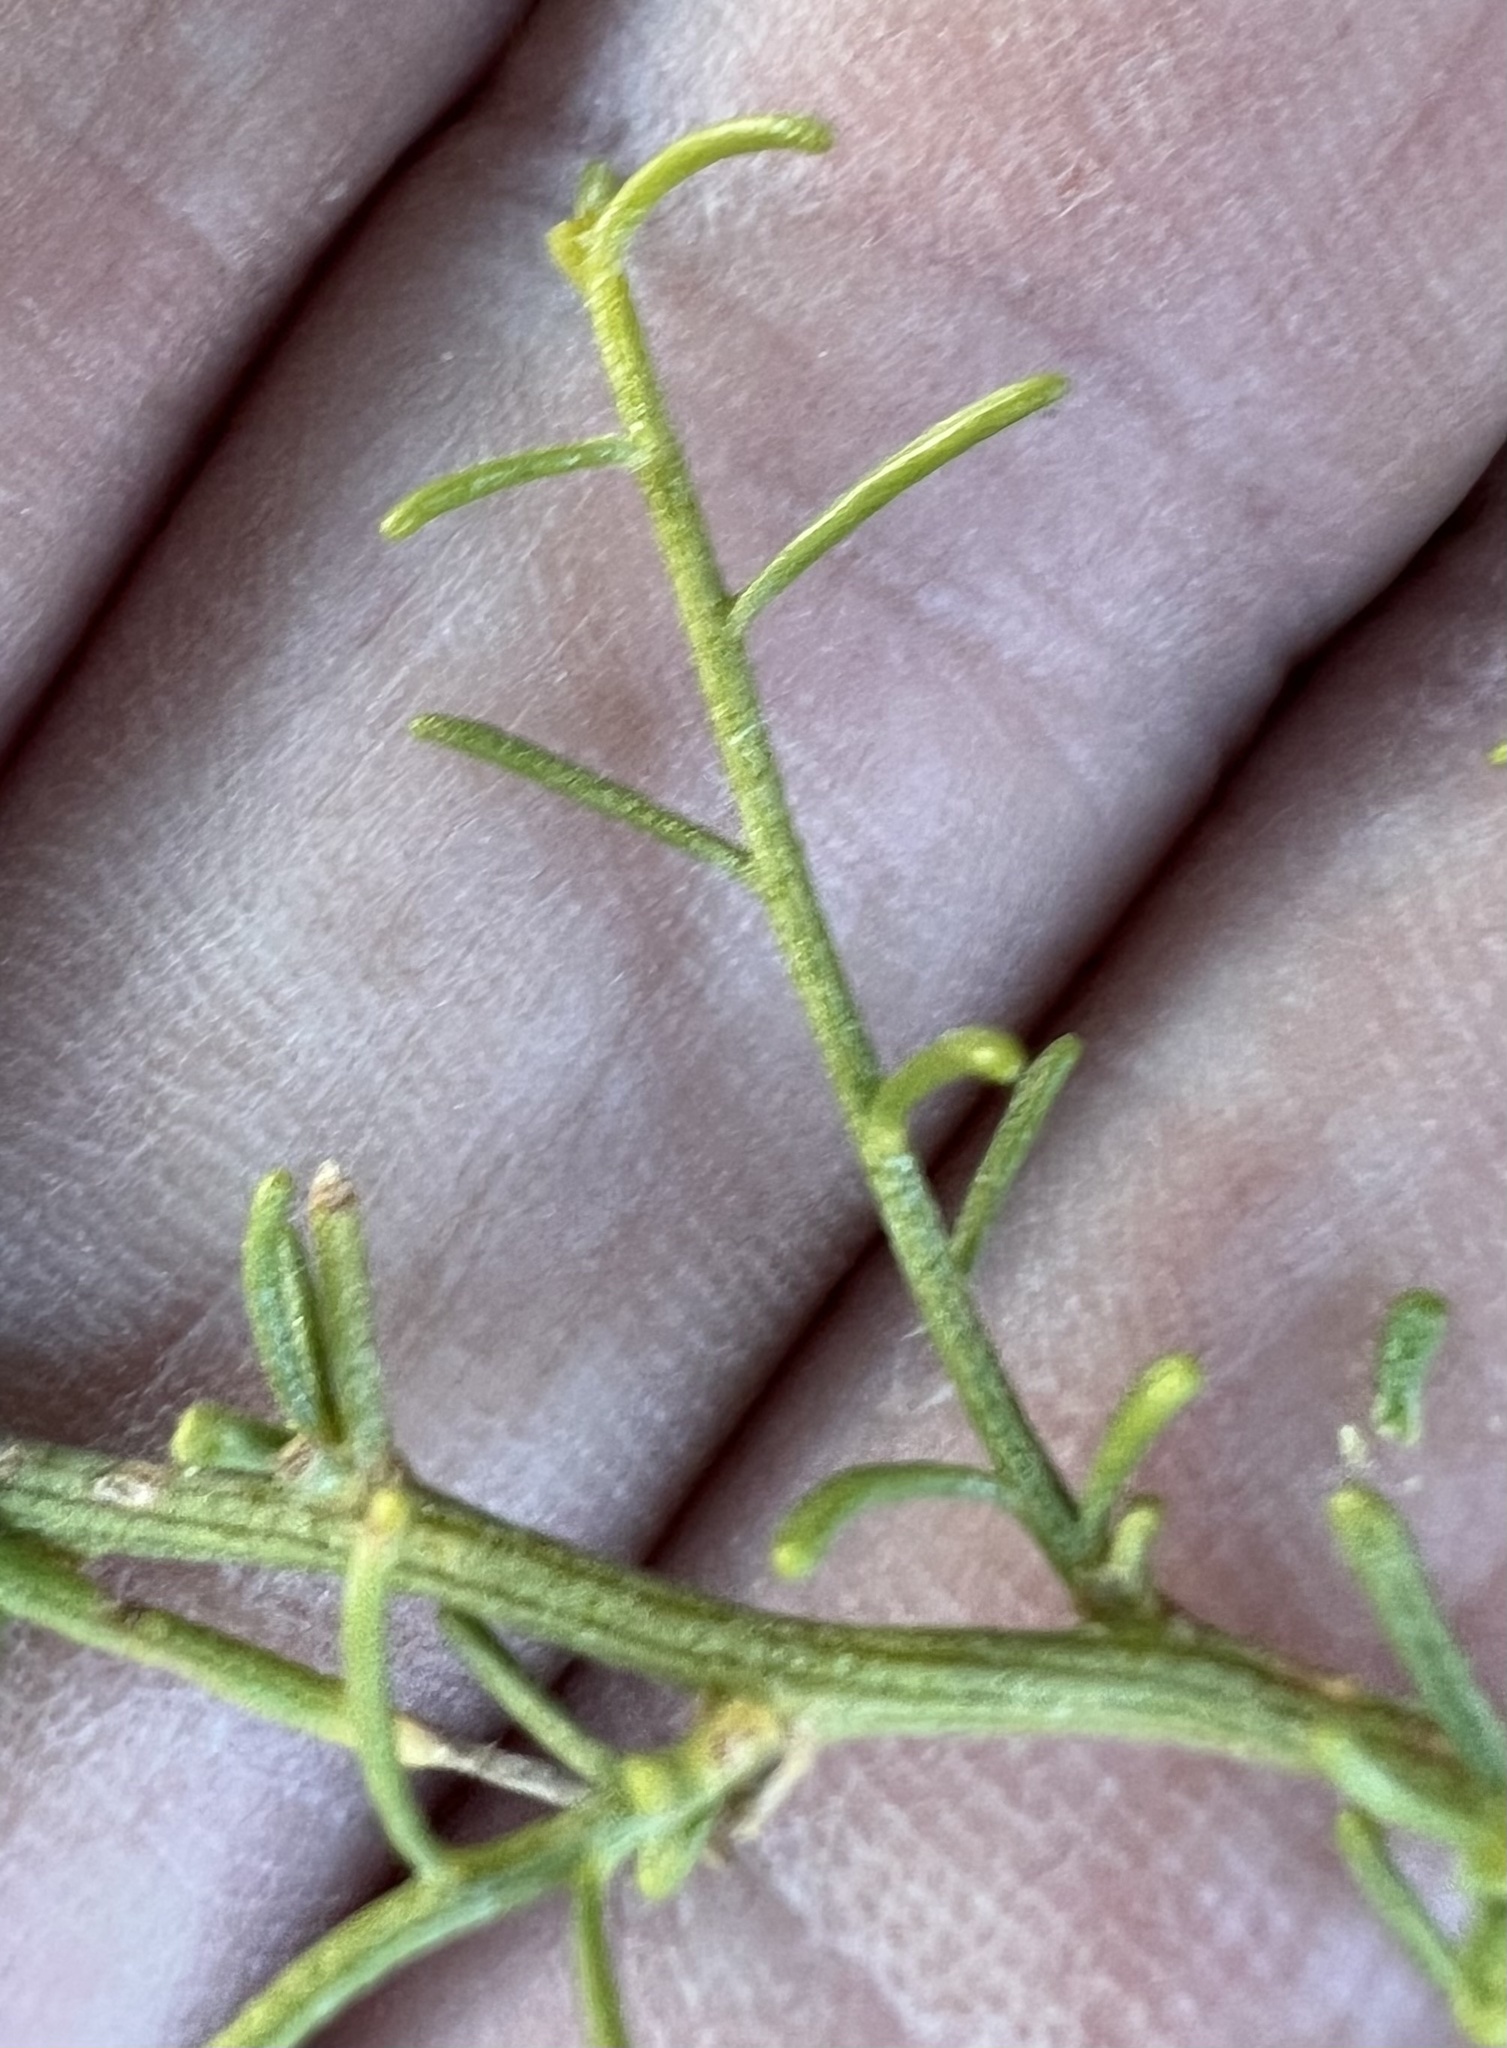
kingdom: Plantae
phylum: Tracheophyta
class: Magnoliopsida
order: Asterales
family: Asteraceae
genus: Ambrosia
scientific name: Ambrosia salsola
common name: Burrobrush
